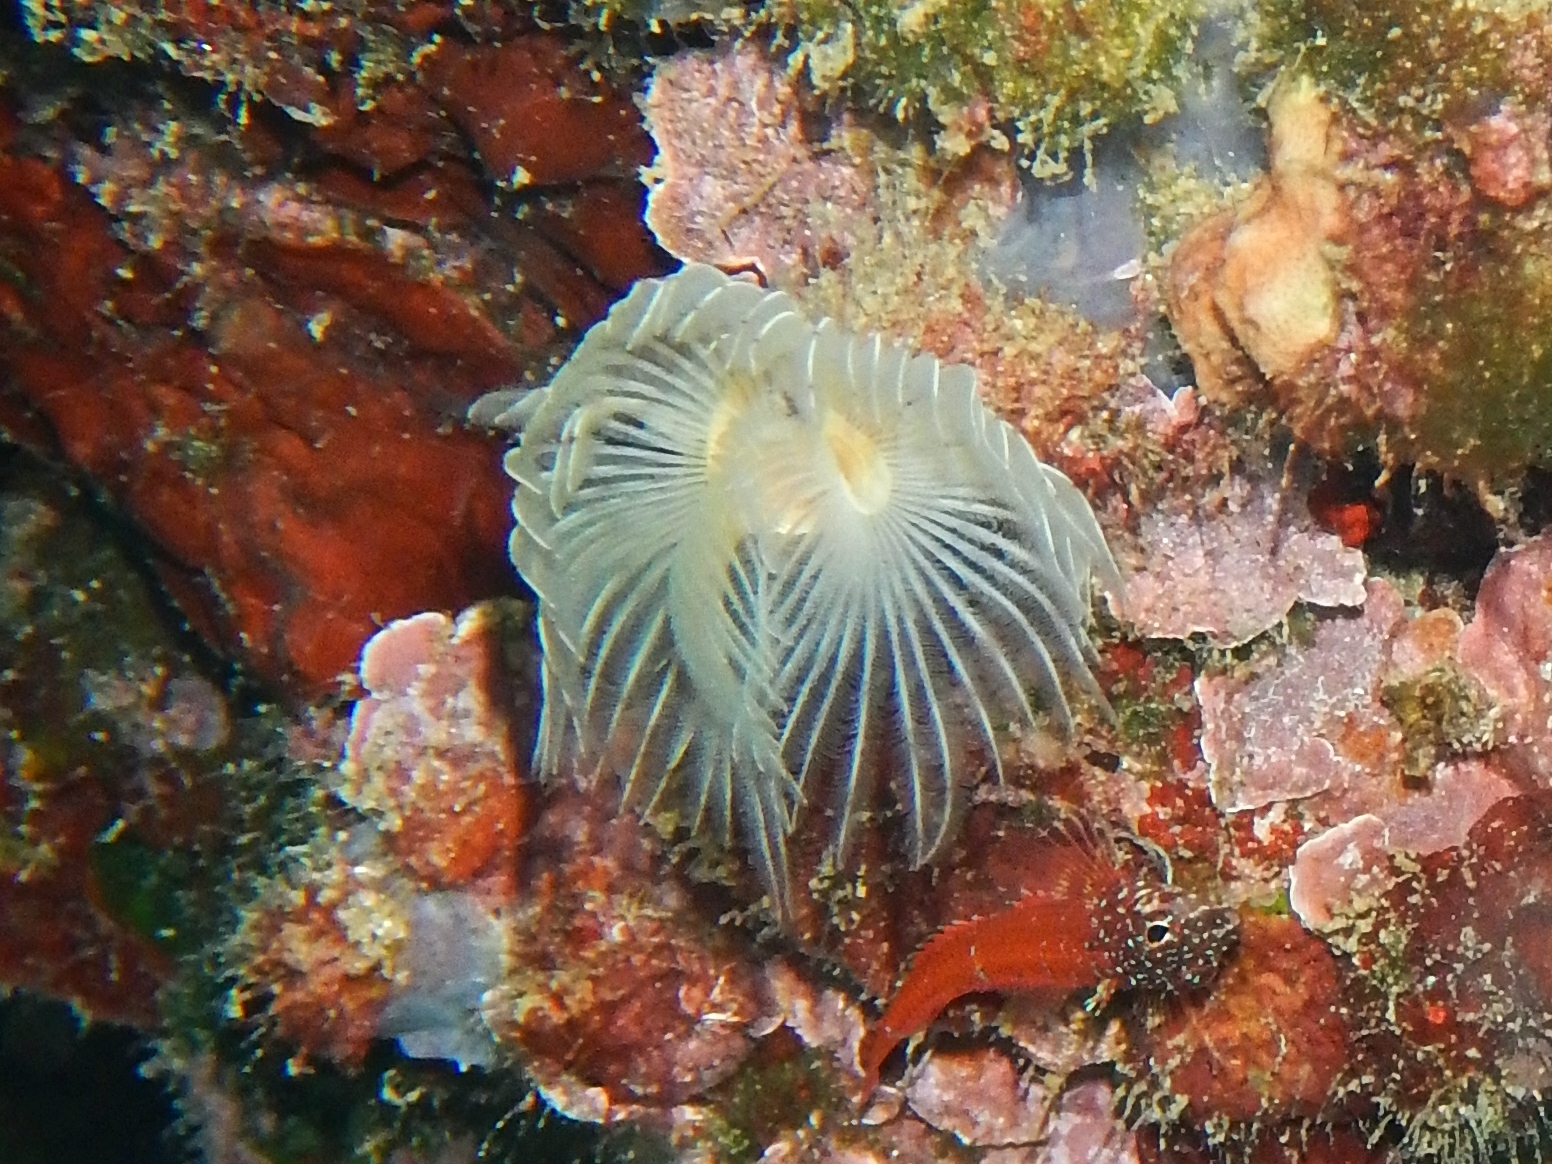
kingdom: Animalia
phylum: Annelida
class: Polychaeta
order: Sabellida
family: Serpulidae
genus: Protula
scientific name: Protula tubularia
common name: Red-spotted horseshoe
